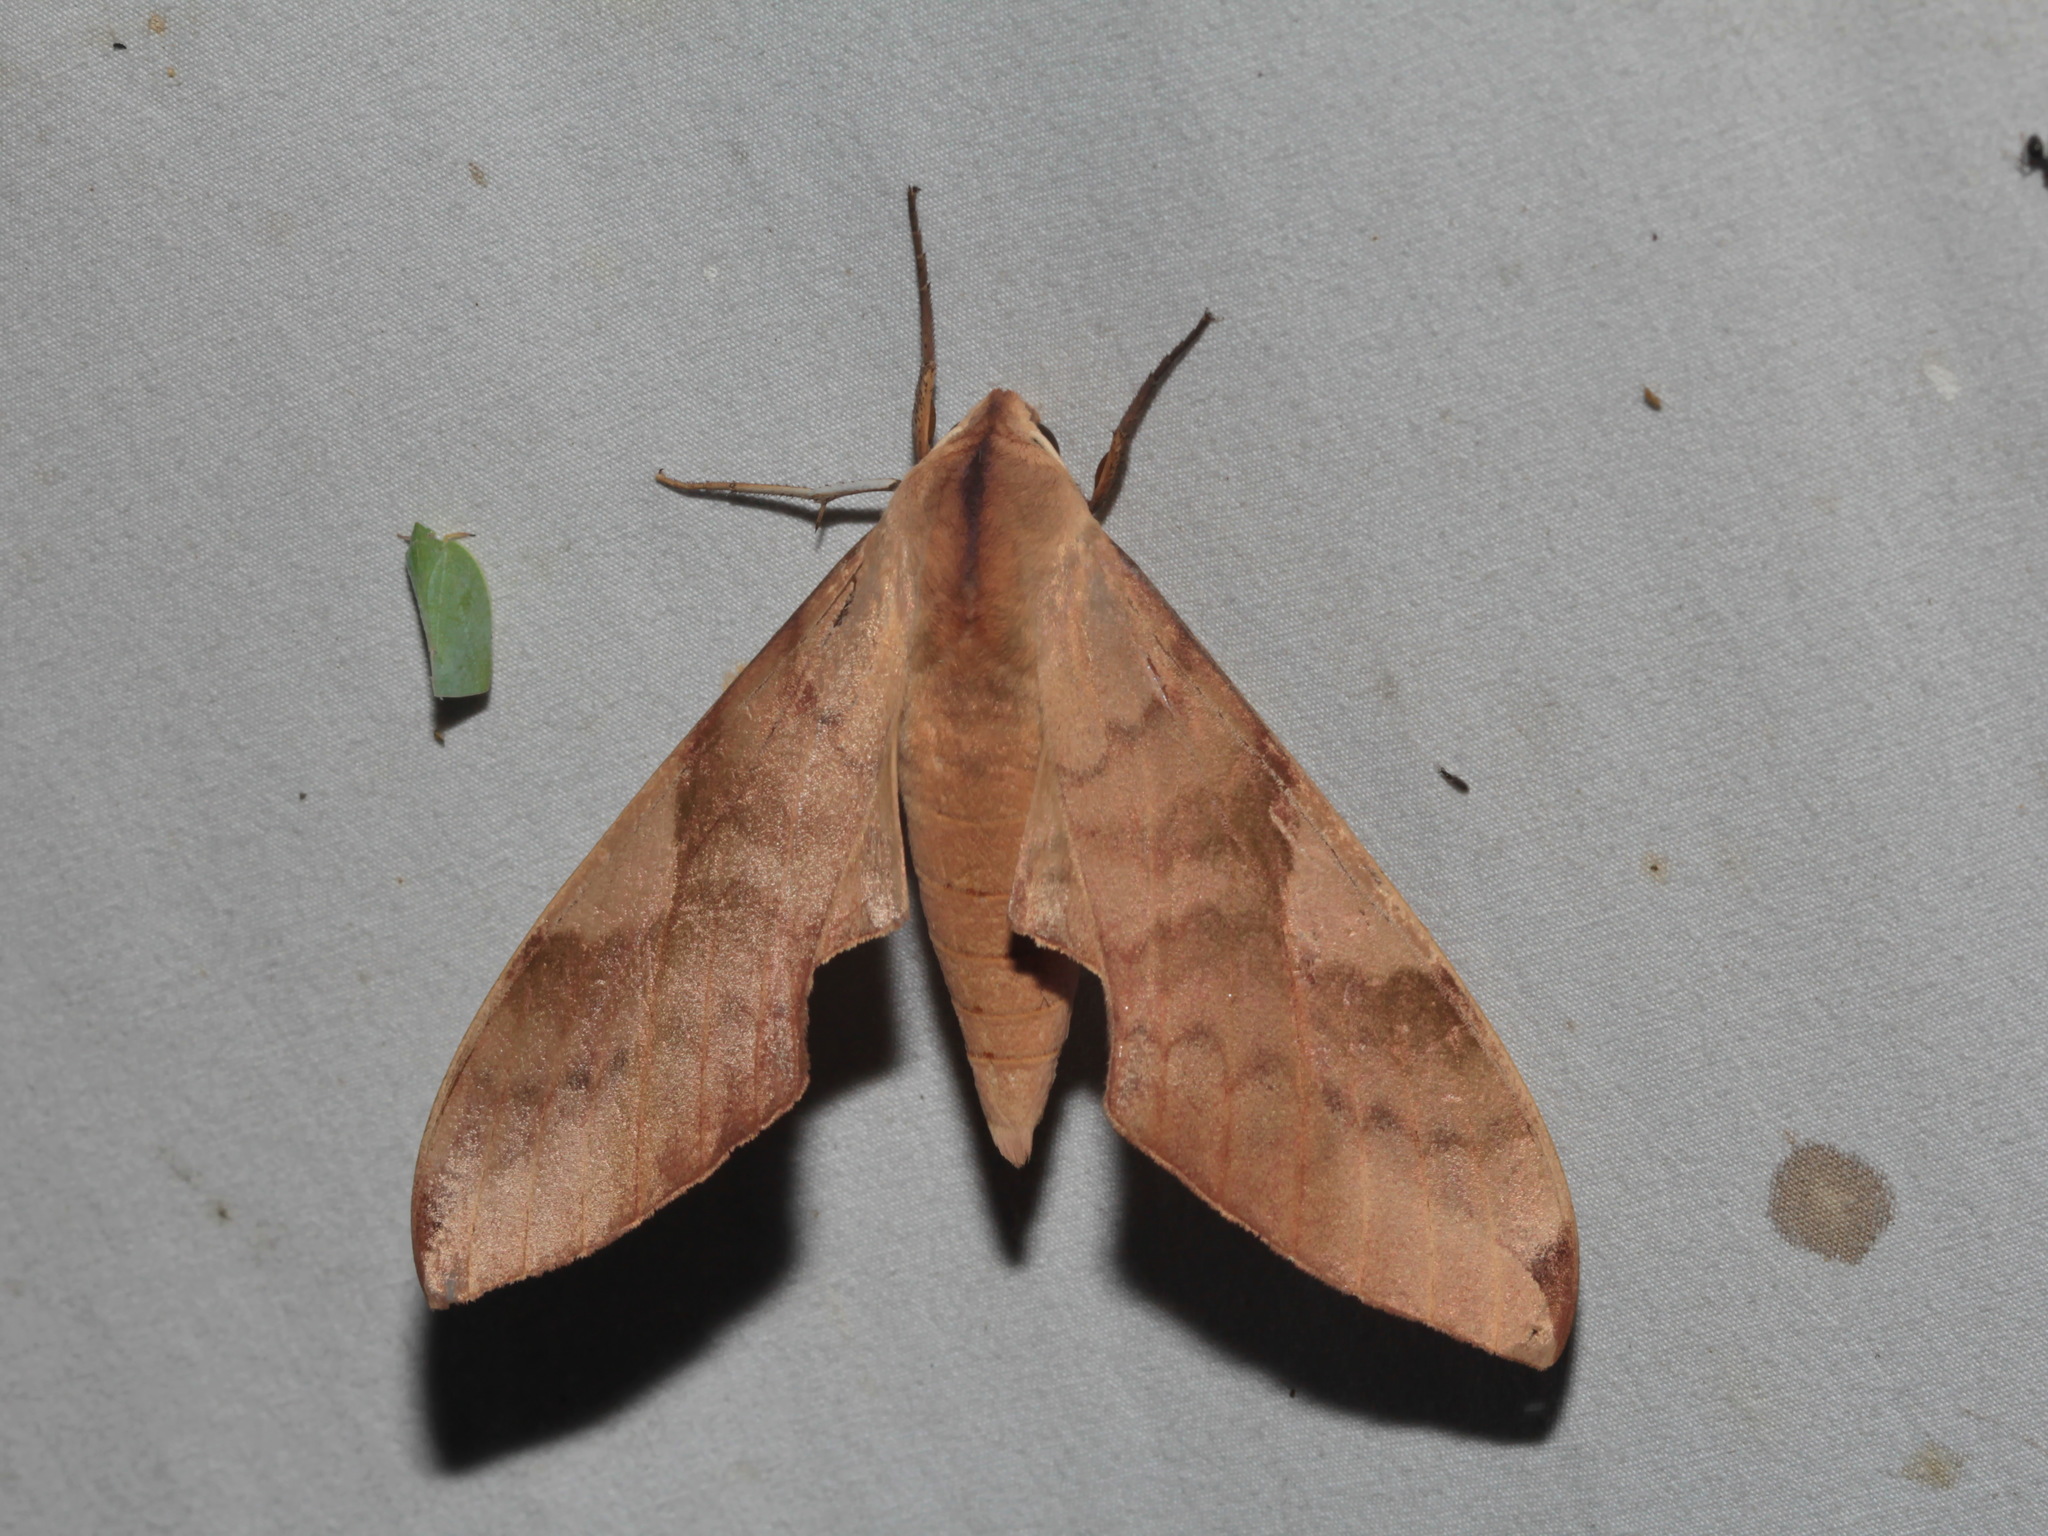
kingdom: Animalia
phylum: Arthropoda
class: Insecta
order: Lepidoptera
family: Sphingidae
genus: Clanis
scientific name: Clanis bilineata
